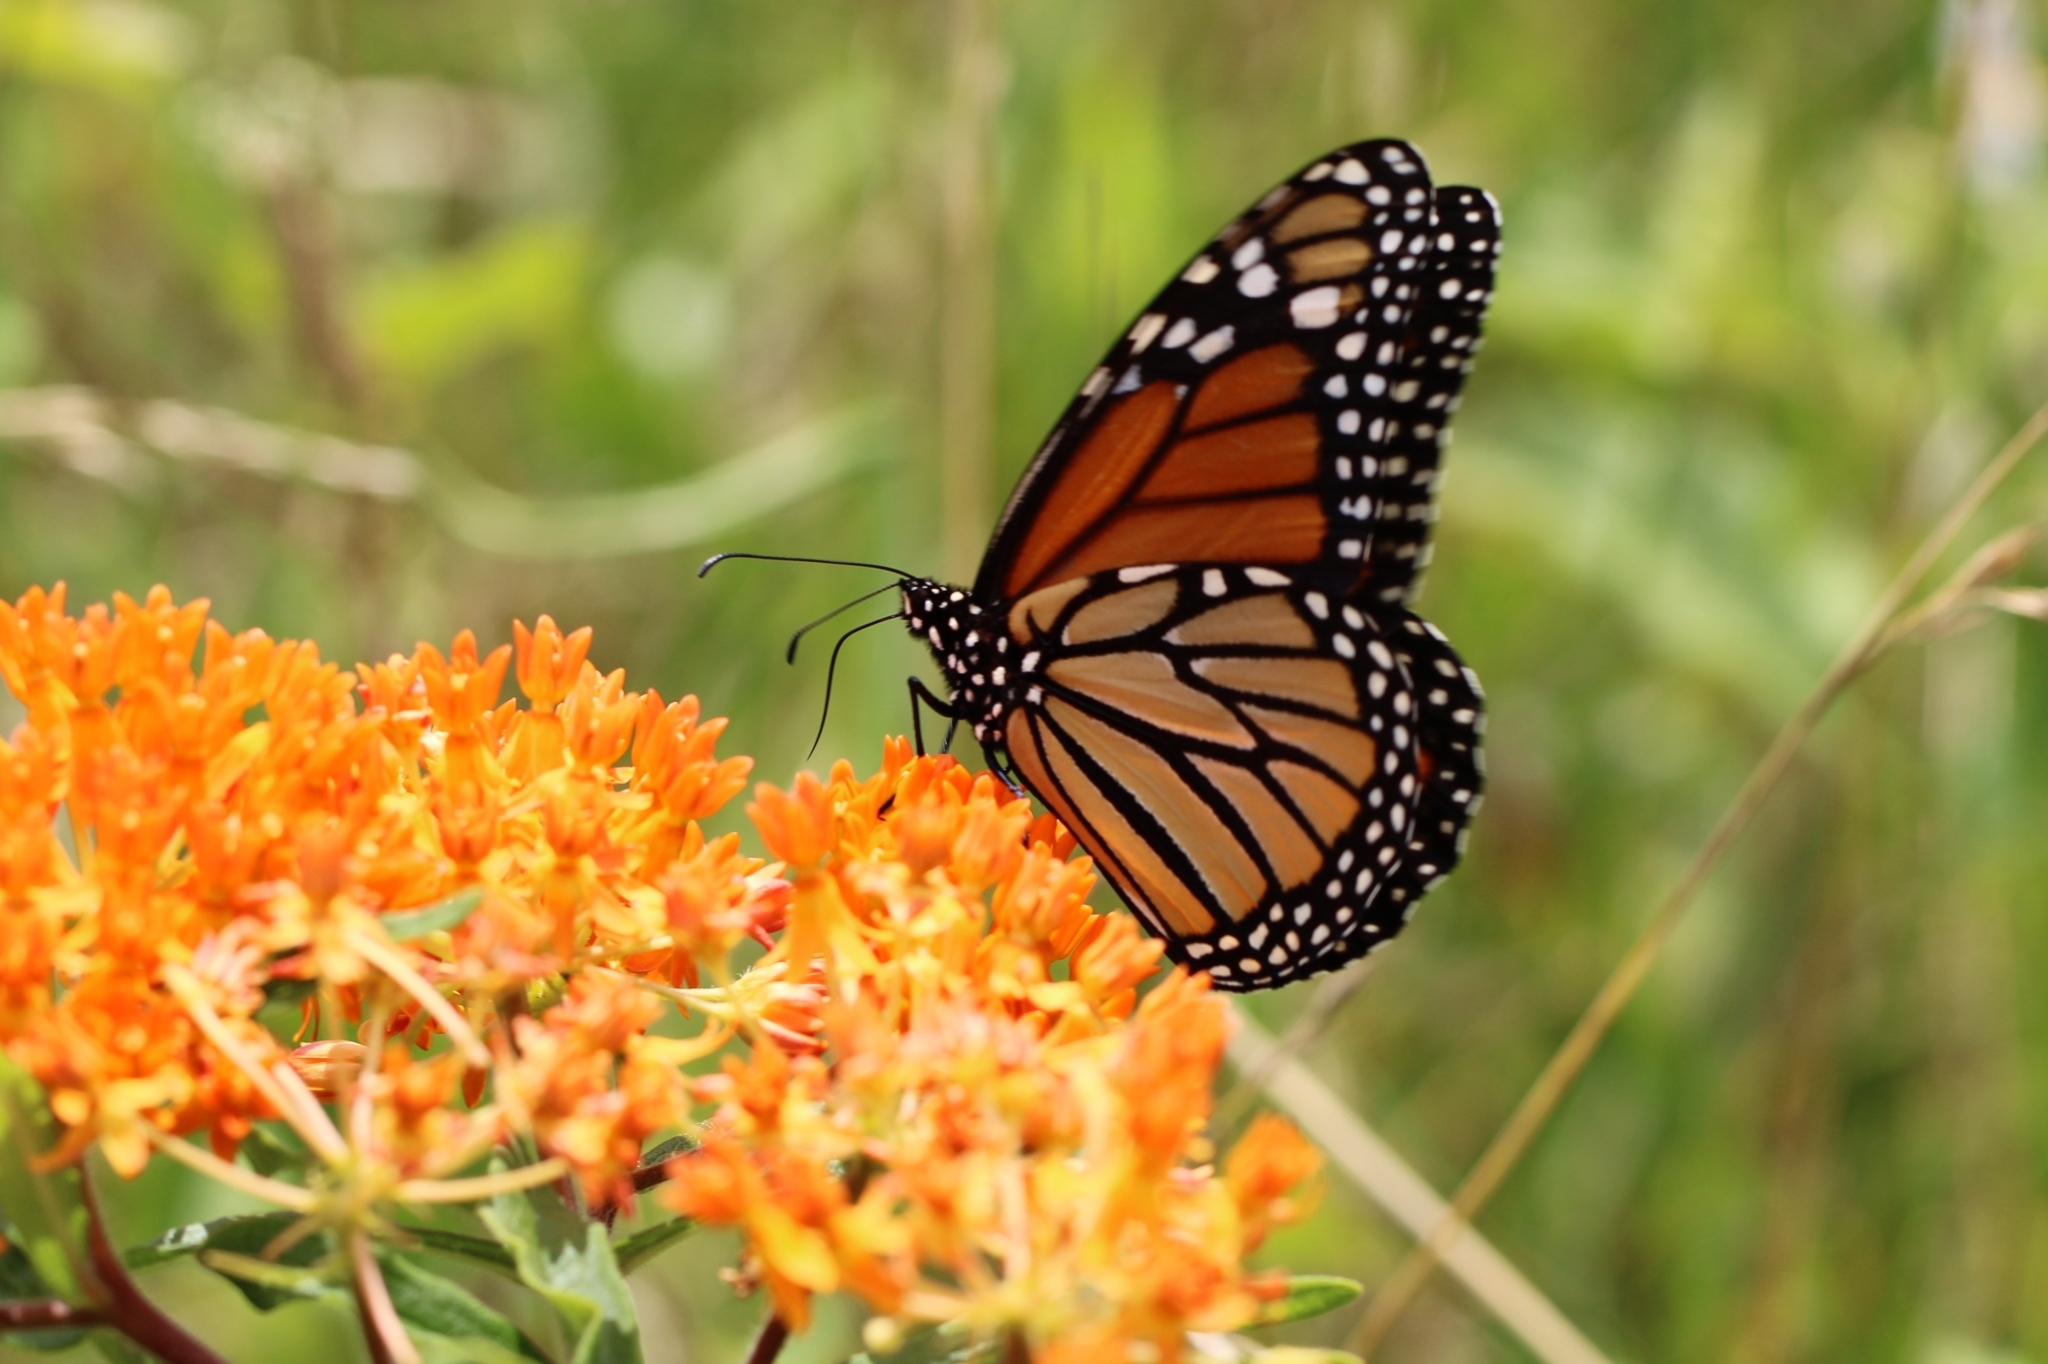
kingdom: Animalia
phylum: Arthropoda
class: Insecta
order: Lepidoptera
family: Nymphalidae
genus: Danaus
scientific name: Danaus plexippus
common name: Monarch
